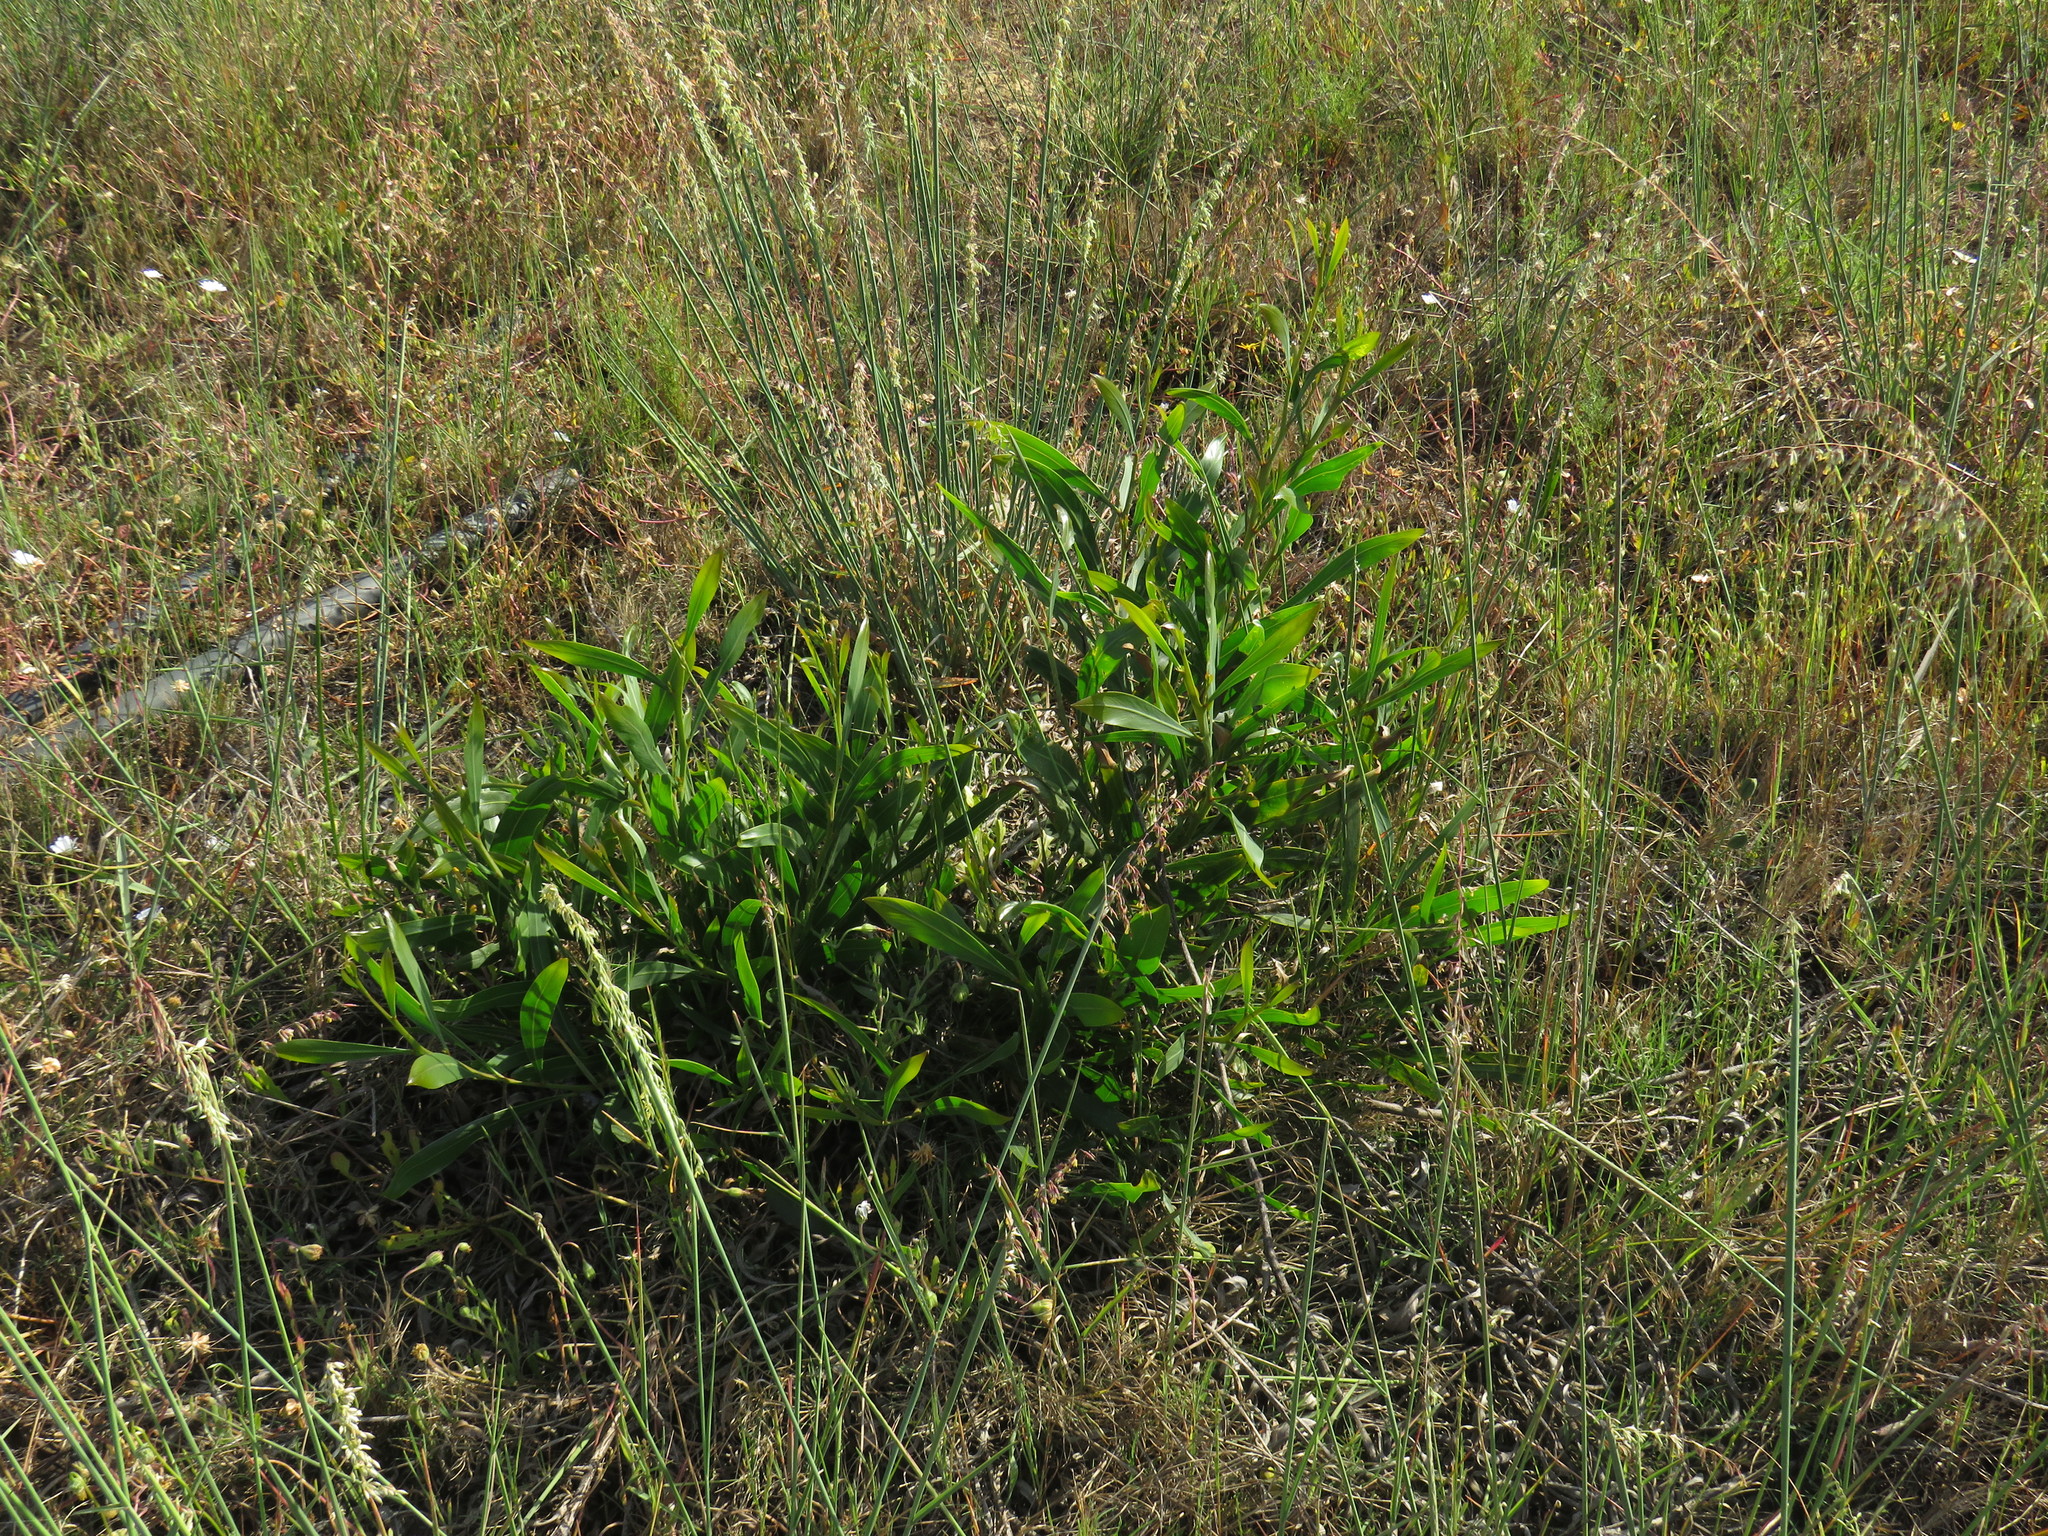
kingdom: Plantae
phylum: Tracheophyta
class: Magnoliopsida
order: Fabales
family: Fabaceae
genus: Acacia
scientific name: Acacia saligna
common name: Orange wattle
